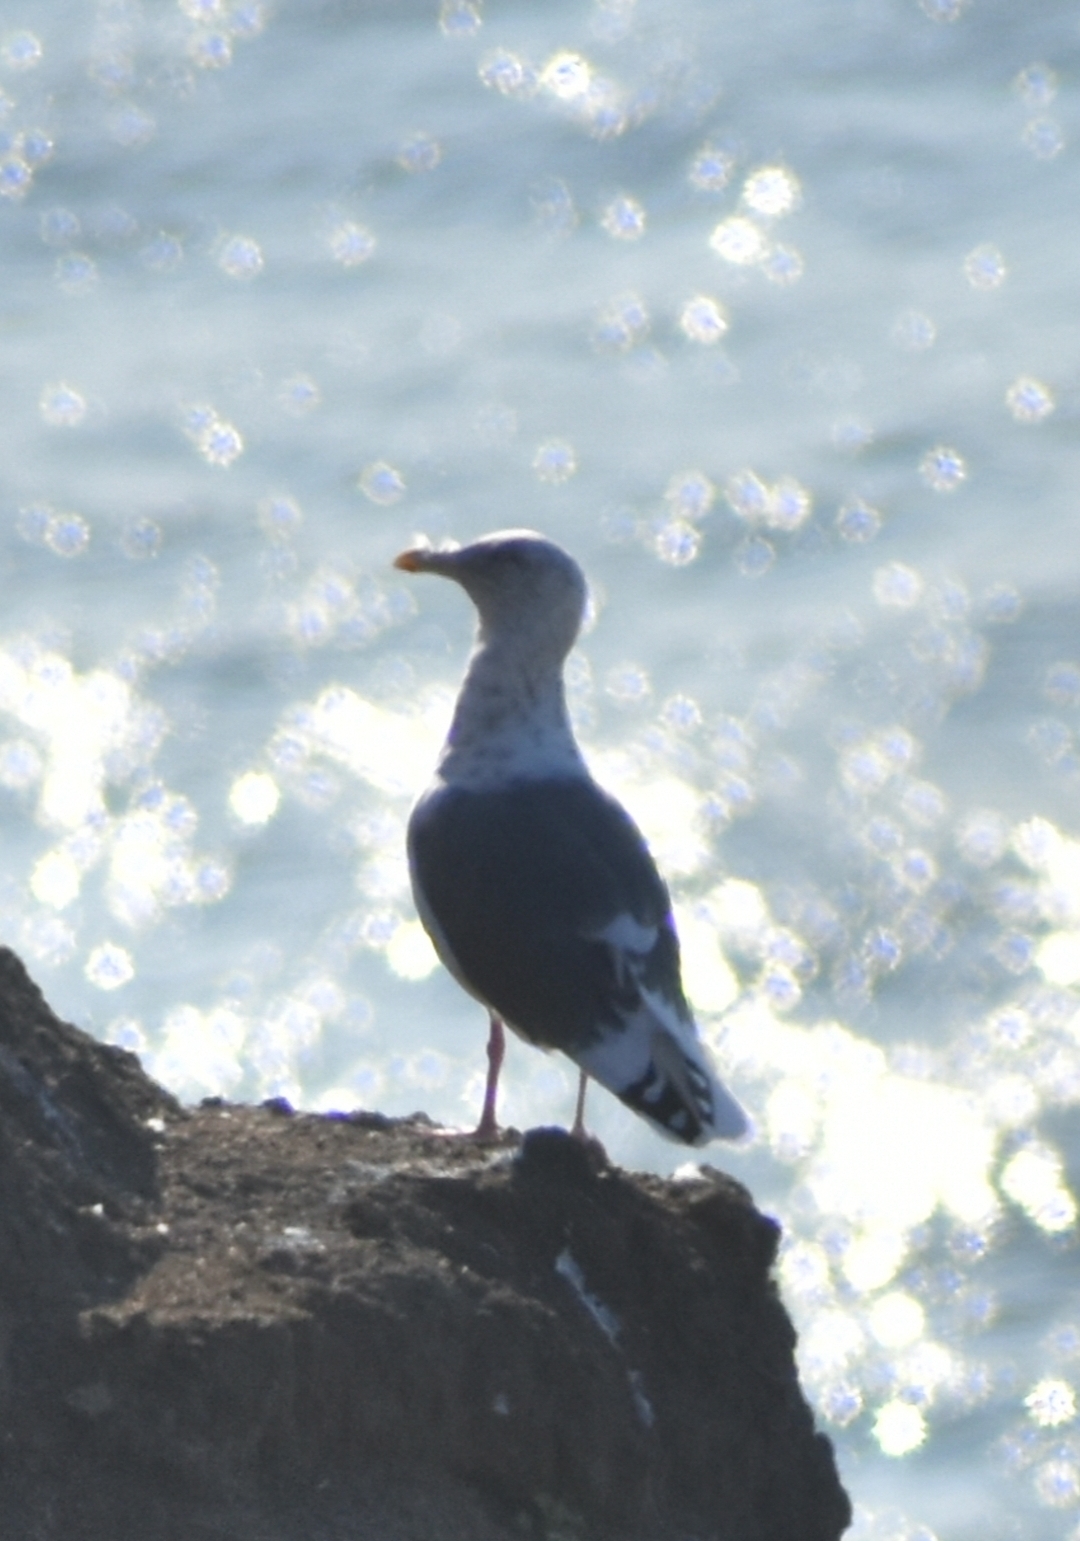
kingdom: Animalia
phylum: Chordata
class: Aves
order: Charadriiformes
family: Laridae
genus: Larus
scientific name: Larus schistisagus
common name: Slaty-backed gull
